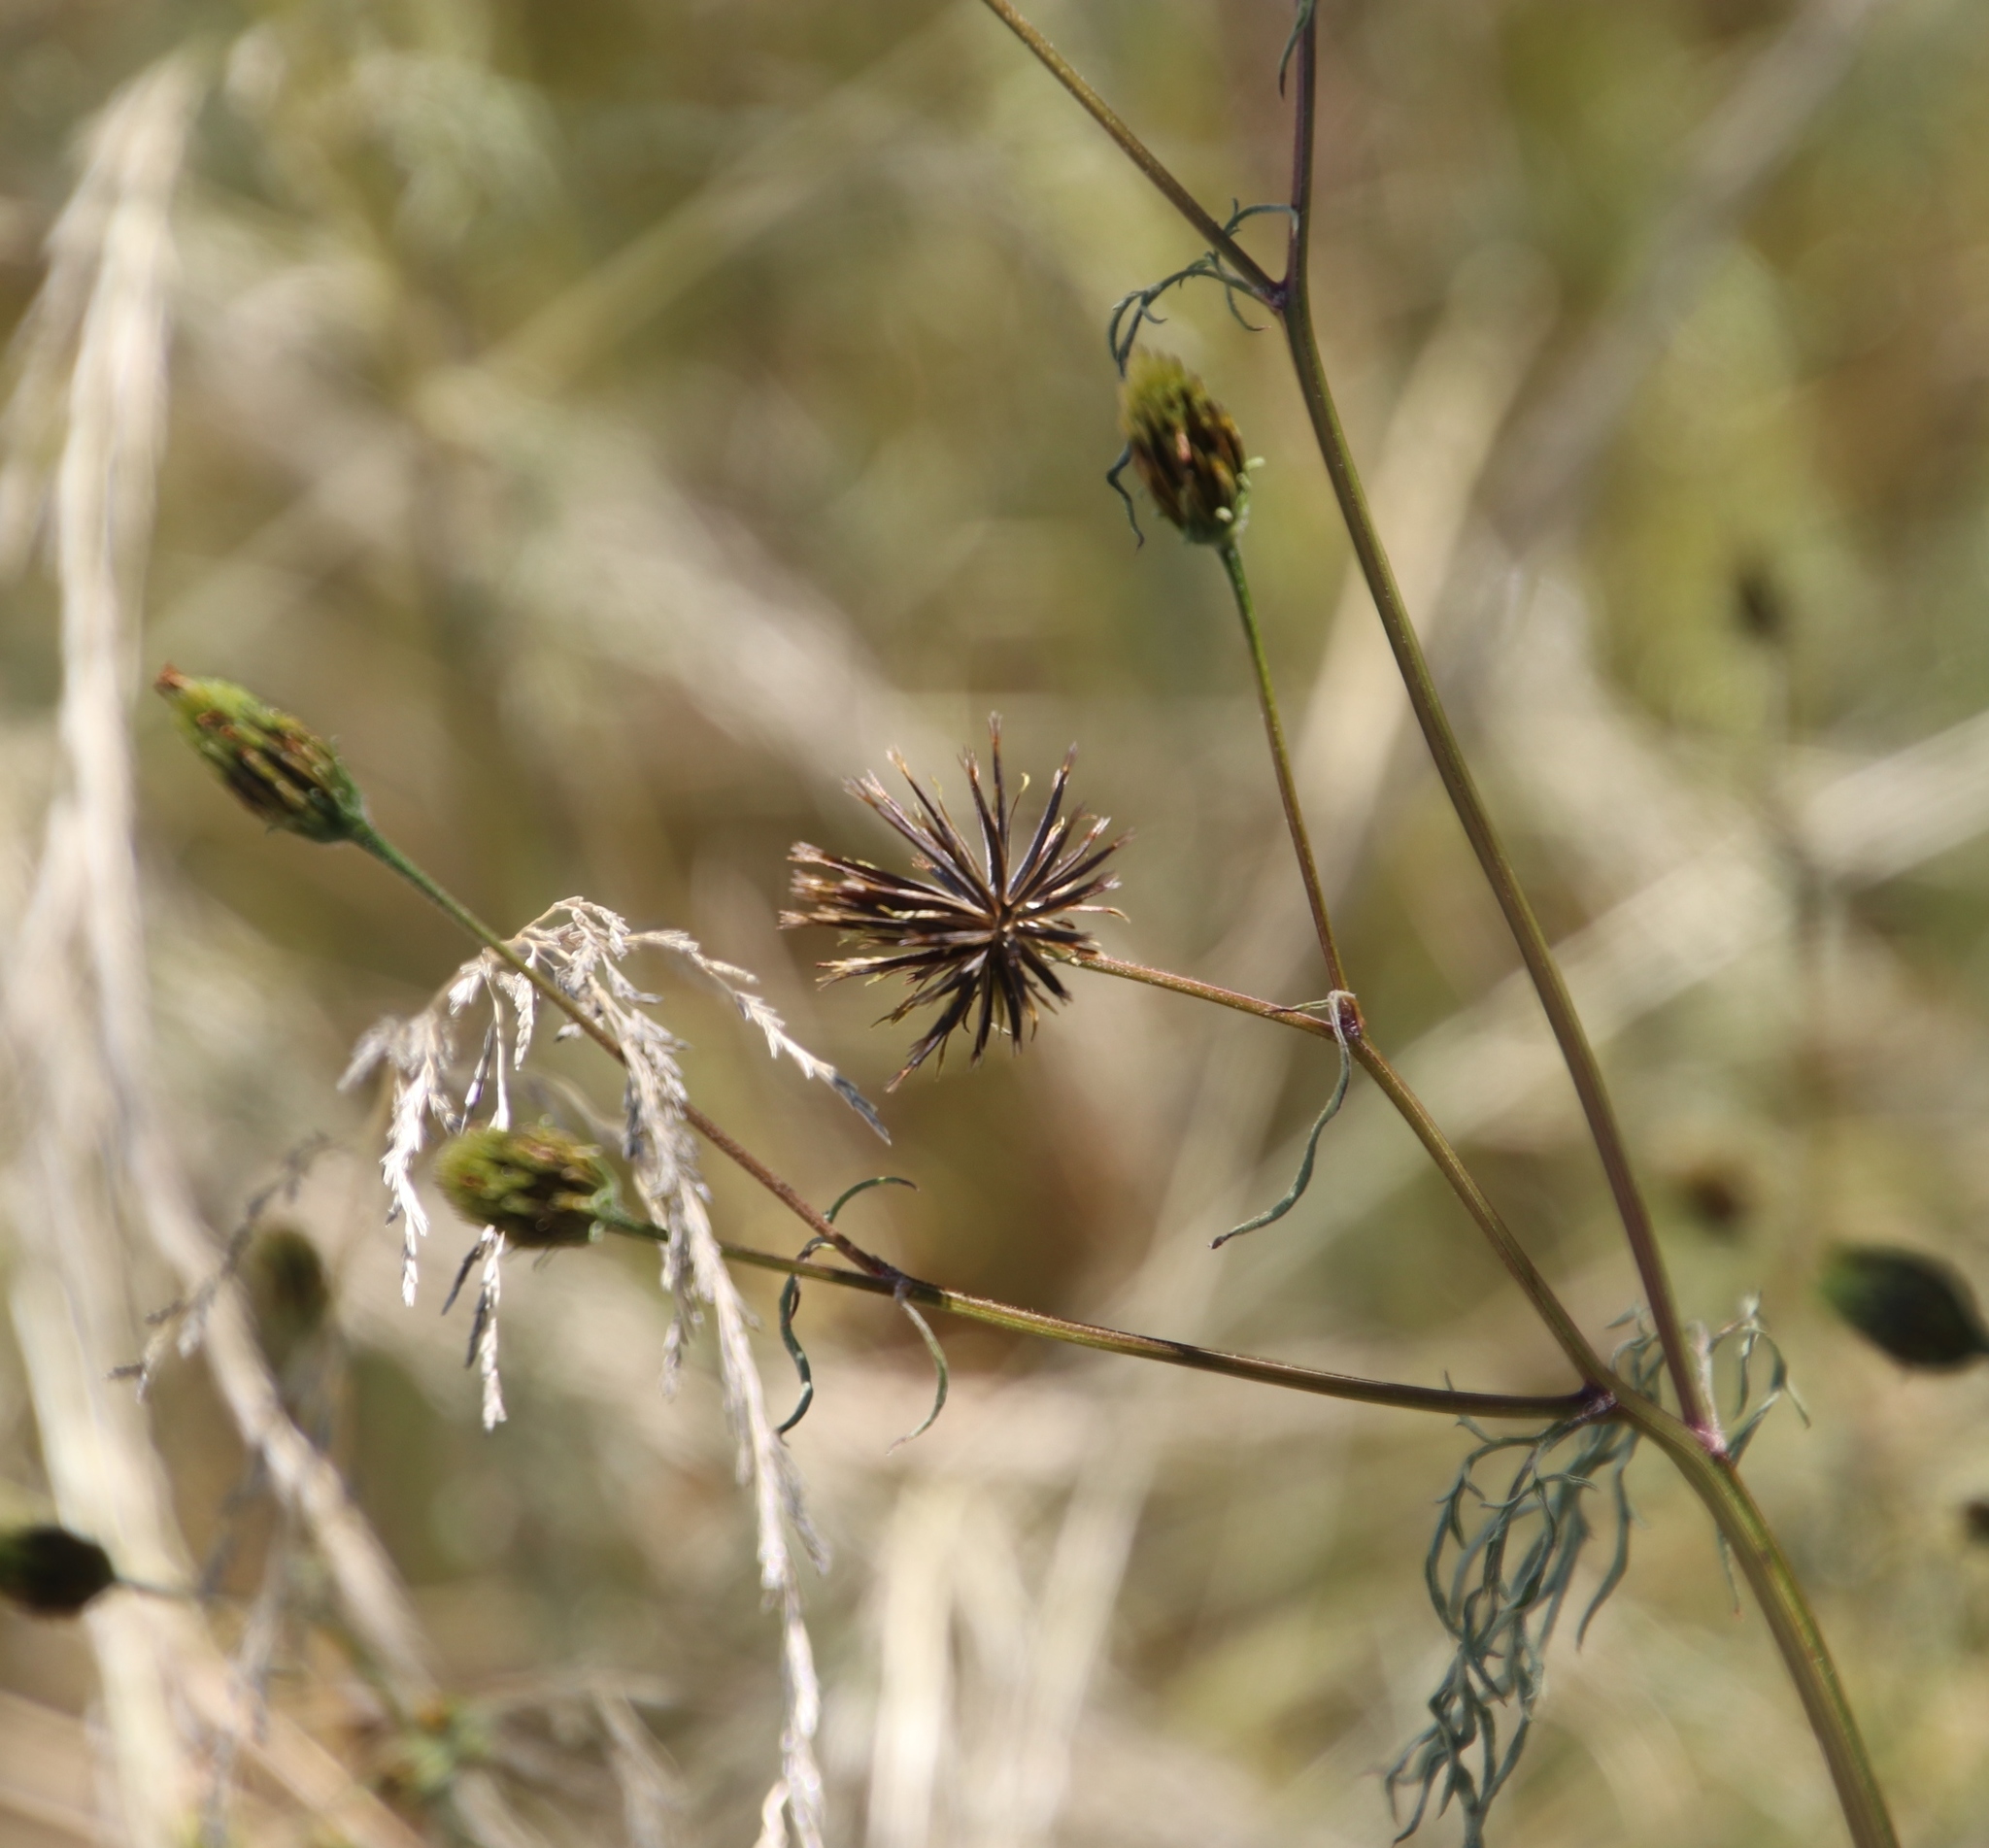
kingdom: Plantae
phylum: Tracheophyta
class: Magnoliopsida
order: Asterales
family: Asteraceae
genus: Bidens
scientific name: Bidens pilosa
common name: Black-jack
